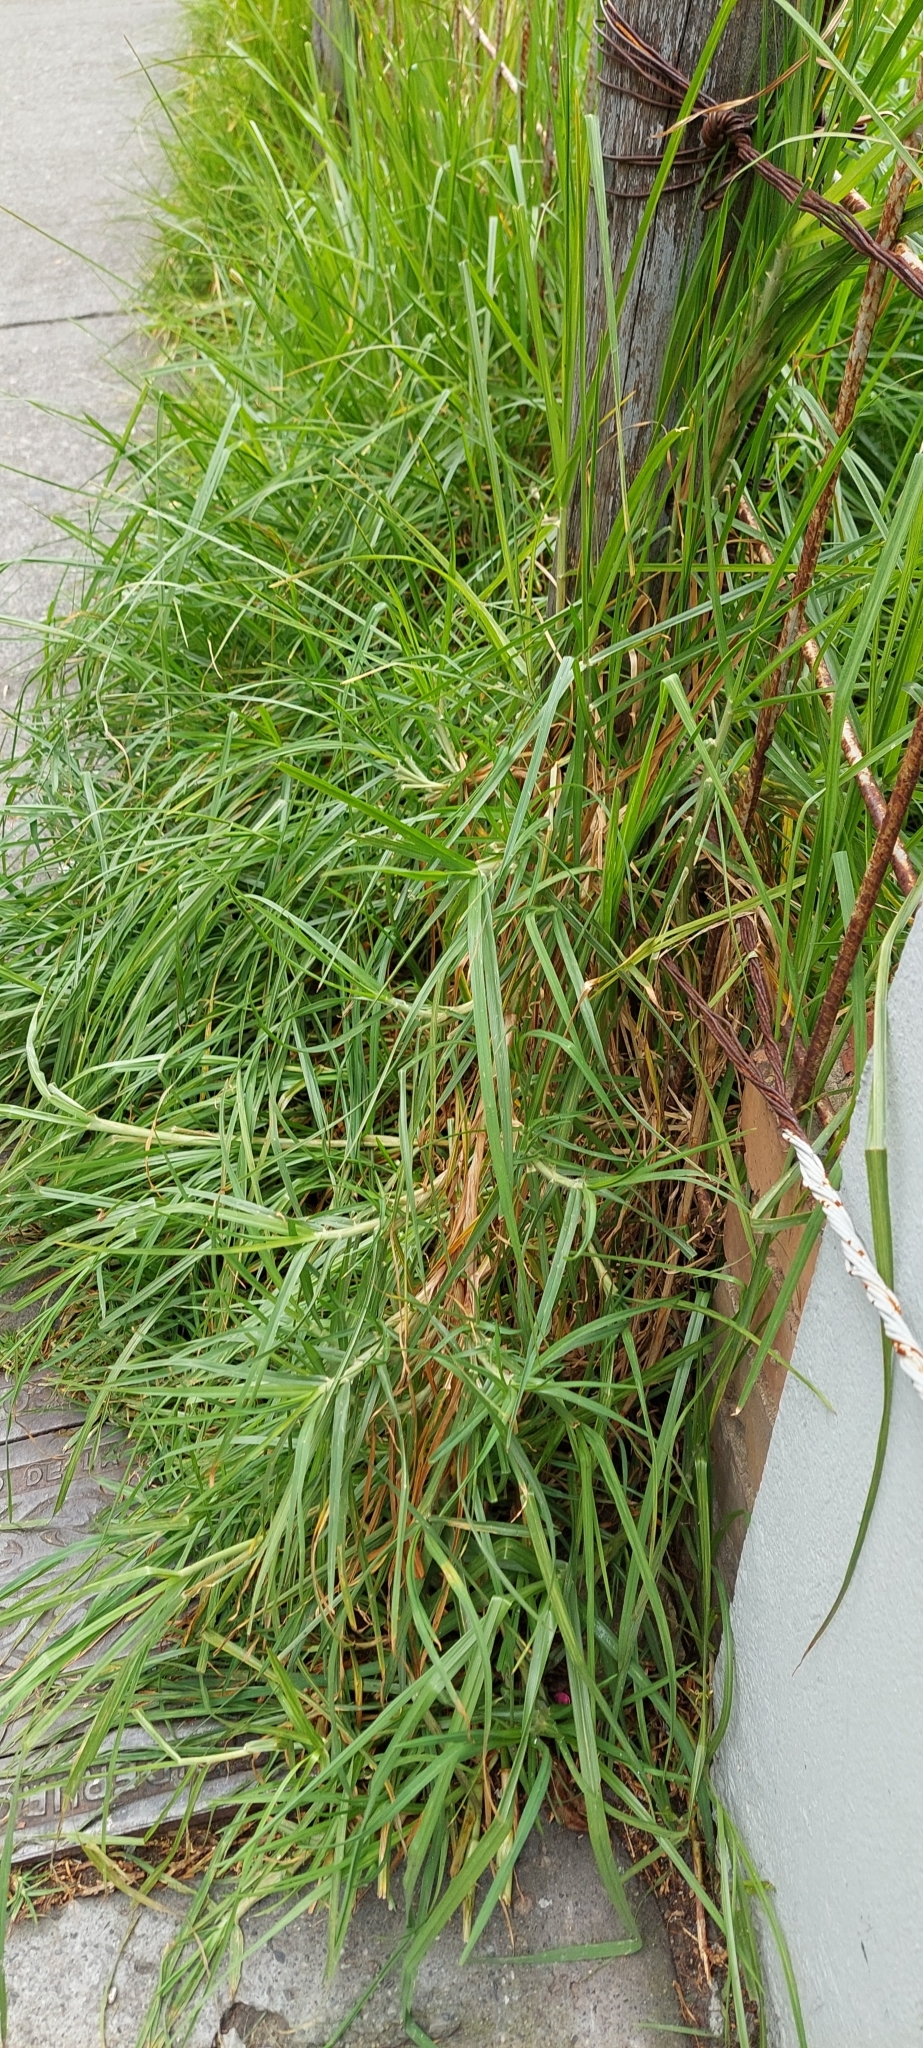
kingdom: Plantae
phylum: Tracheophyta
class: Liliopsida
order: Poales
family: Poaceae
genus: Cenchrus
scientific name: Cenchrus clandestinus
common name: Kikuyugrass
